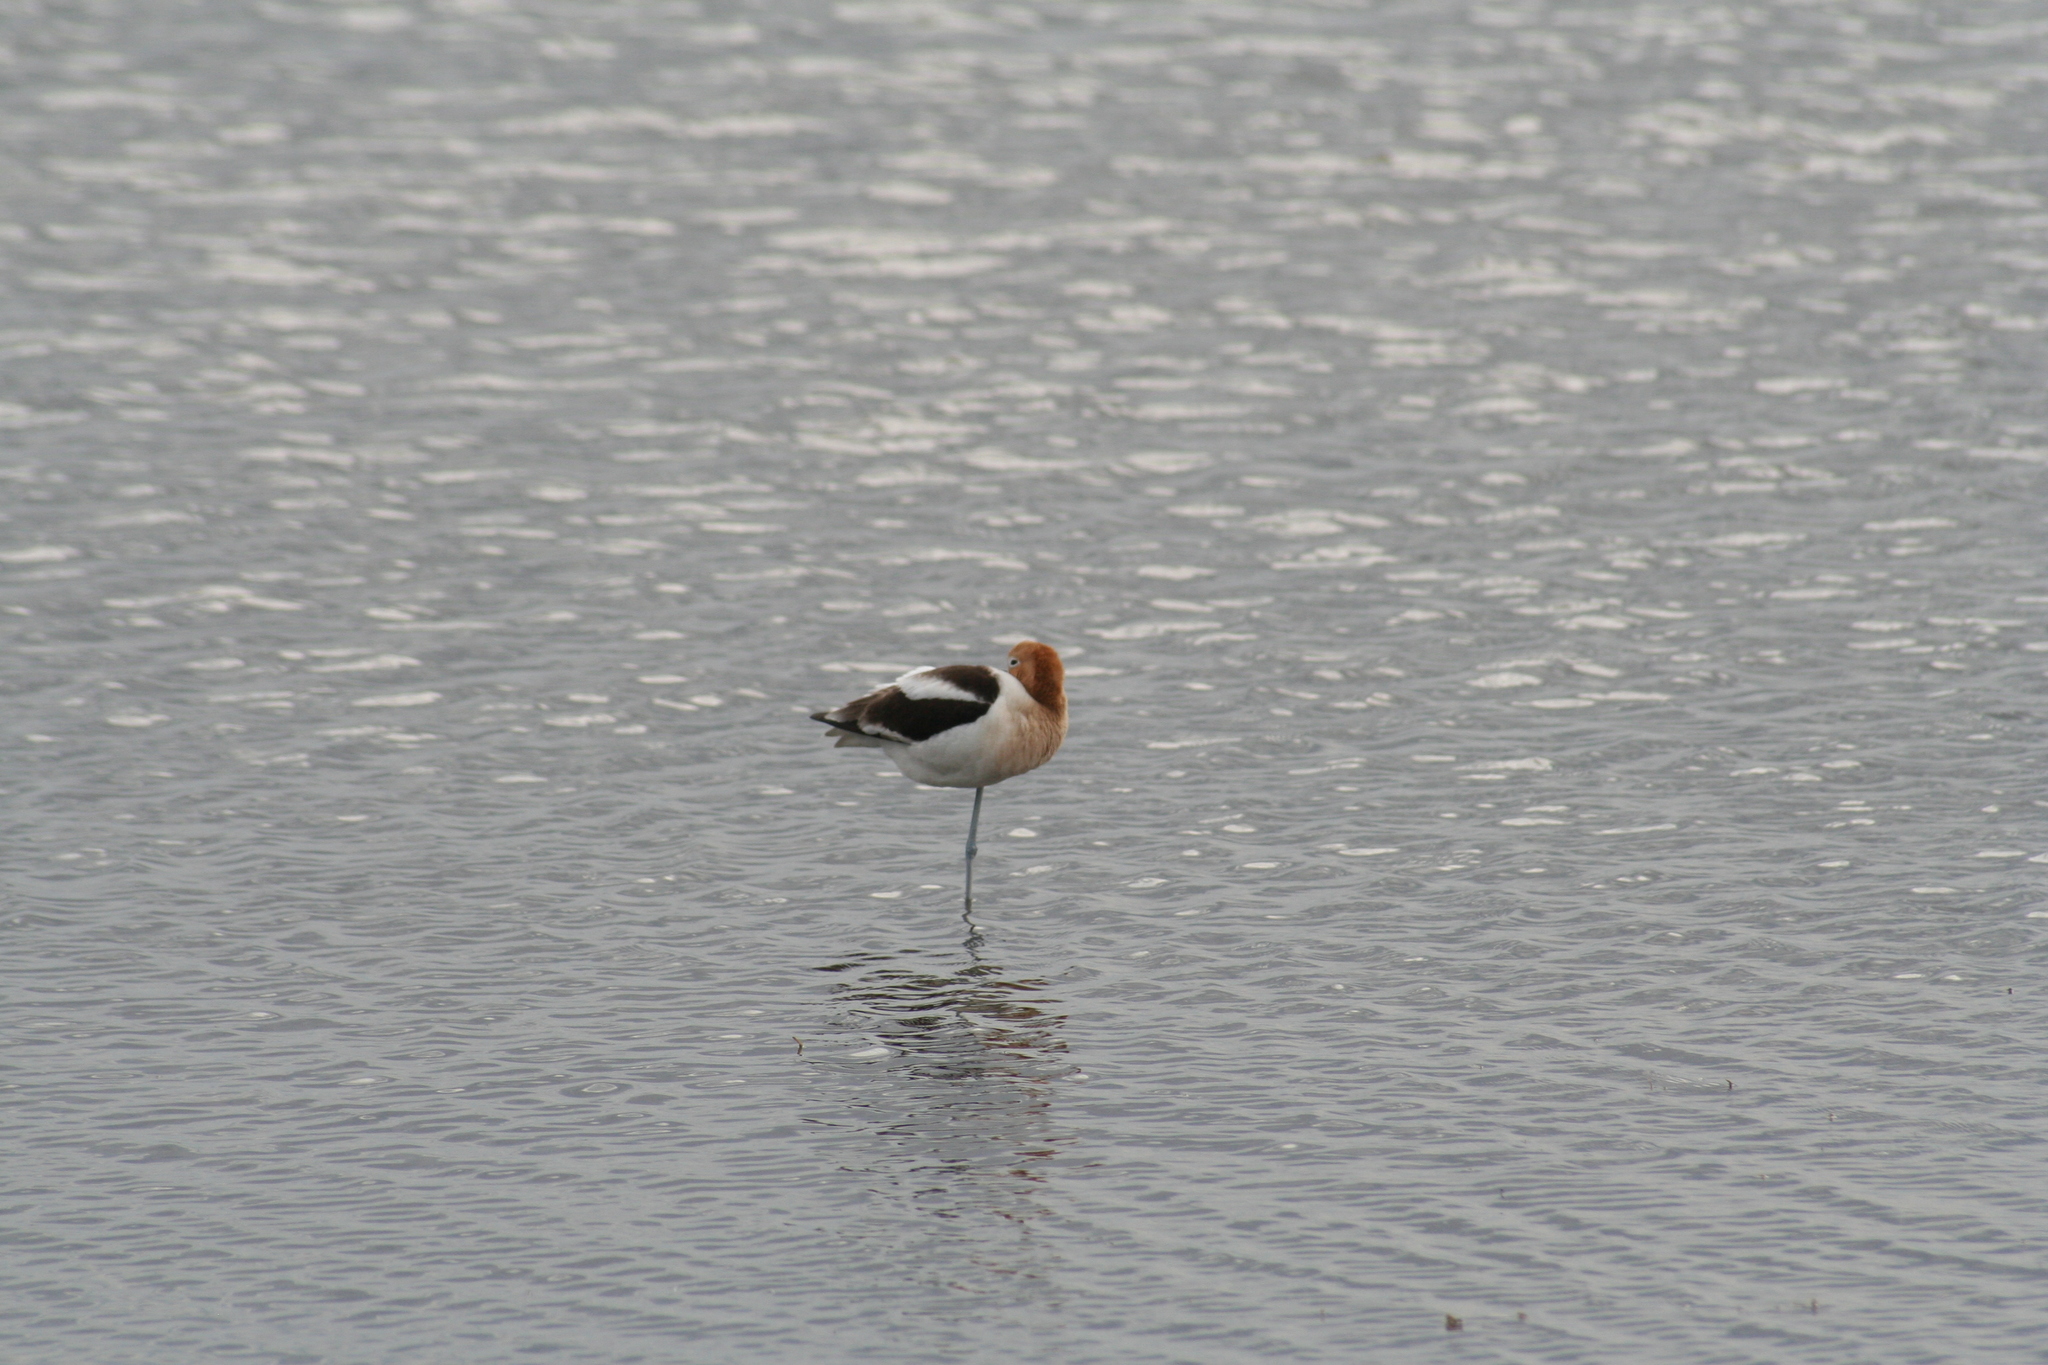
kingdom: Animalia
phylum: Chordata
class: Aves
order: Charadriiformes
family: Recurvirostridae
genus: Recurvirostra
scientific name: Recurvirostra americana
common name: American avocet
